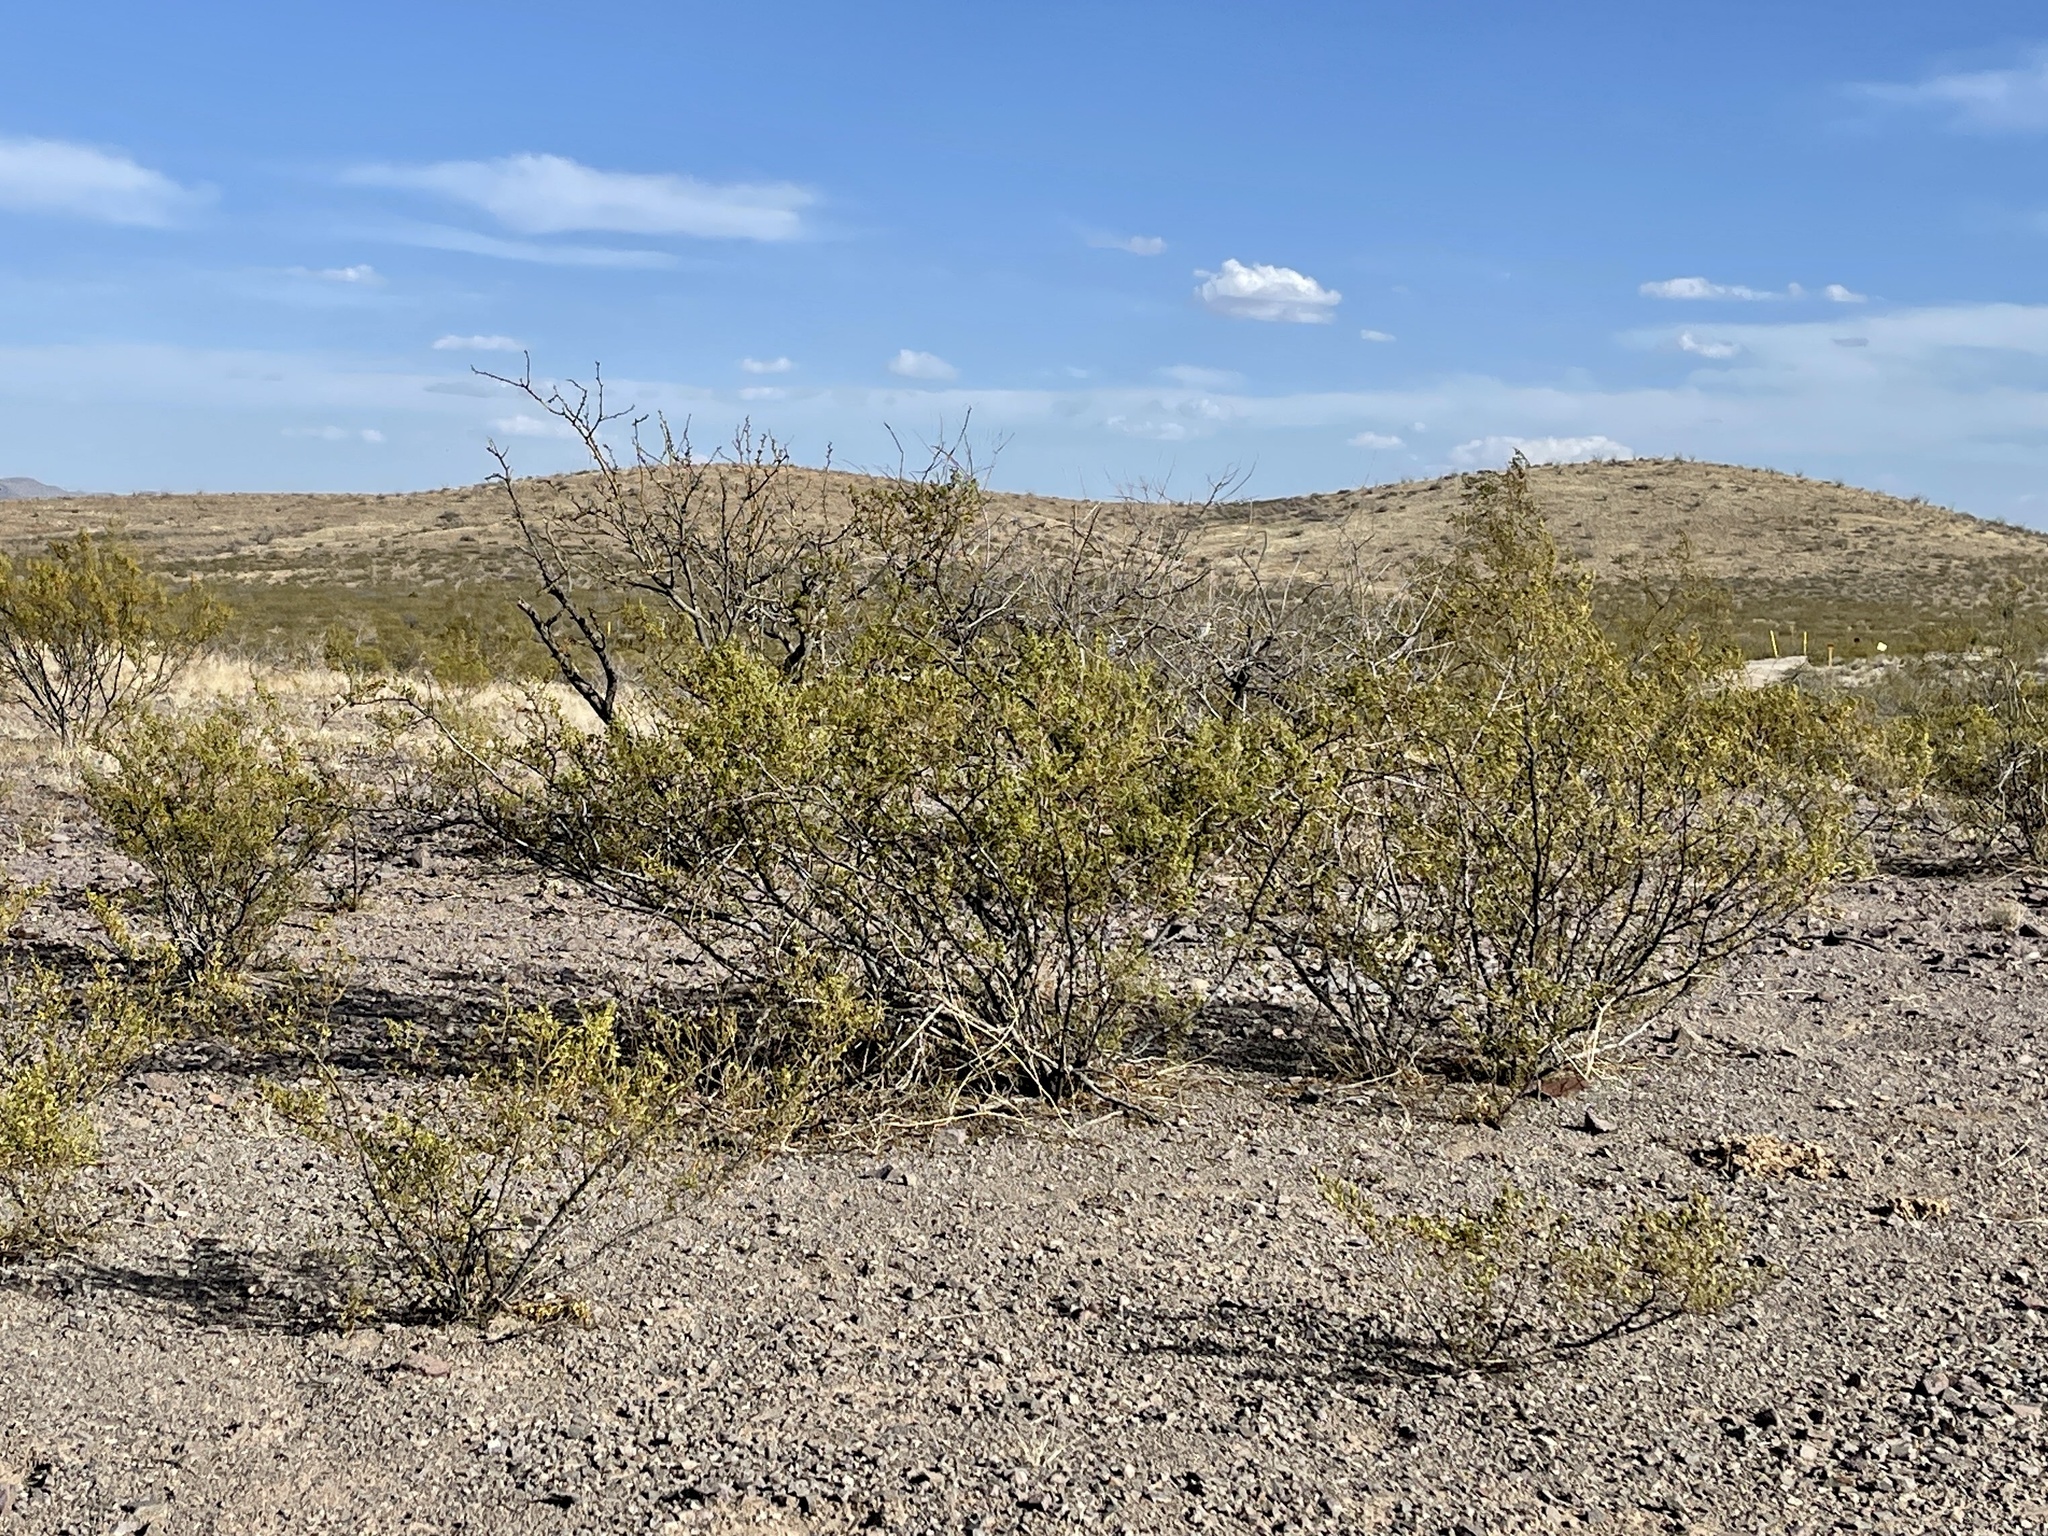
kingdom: Plantae
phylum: Tracheophyta
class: Magnoliopsida
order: Zygophyllales
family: Zygophyllaceae
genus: Larrea
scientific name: Larrea tridentata
